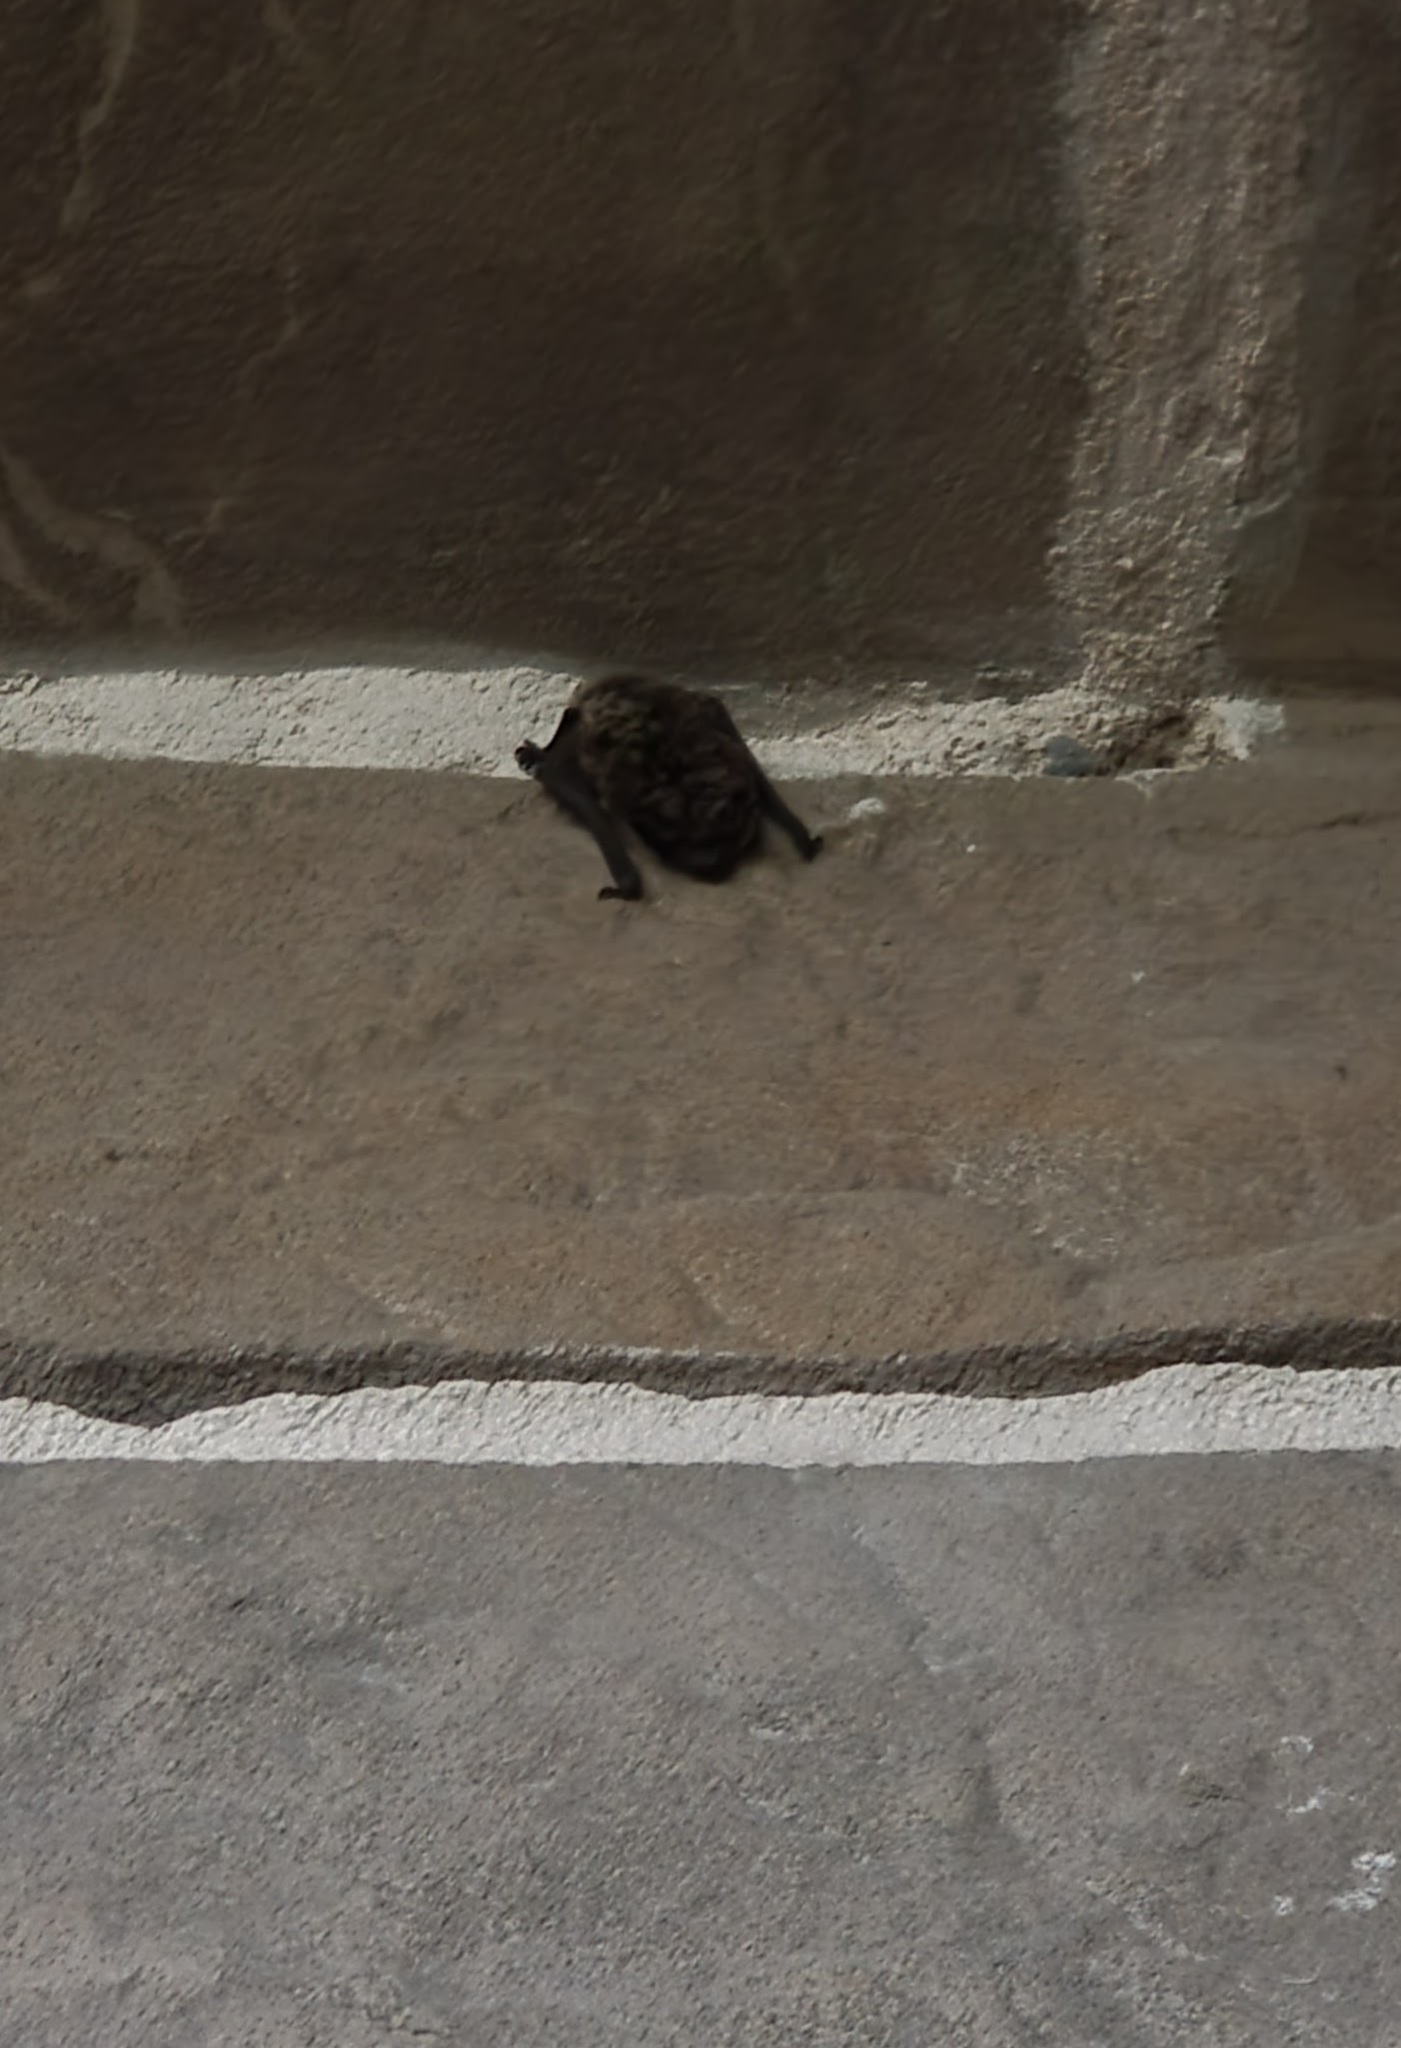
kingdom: Animalia
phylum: Chordata
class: Mammalia
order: Chiroptera
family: Vespertilionidae
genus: Vespertilio
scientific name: Vespertilio murinus
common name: Particolored bat
